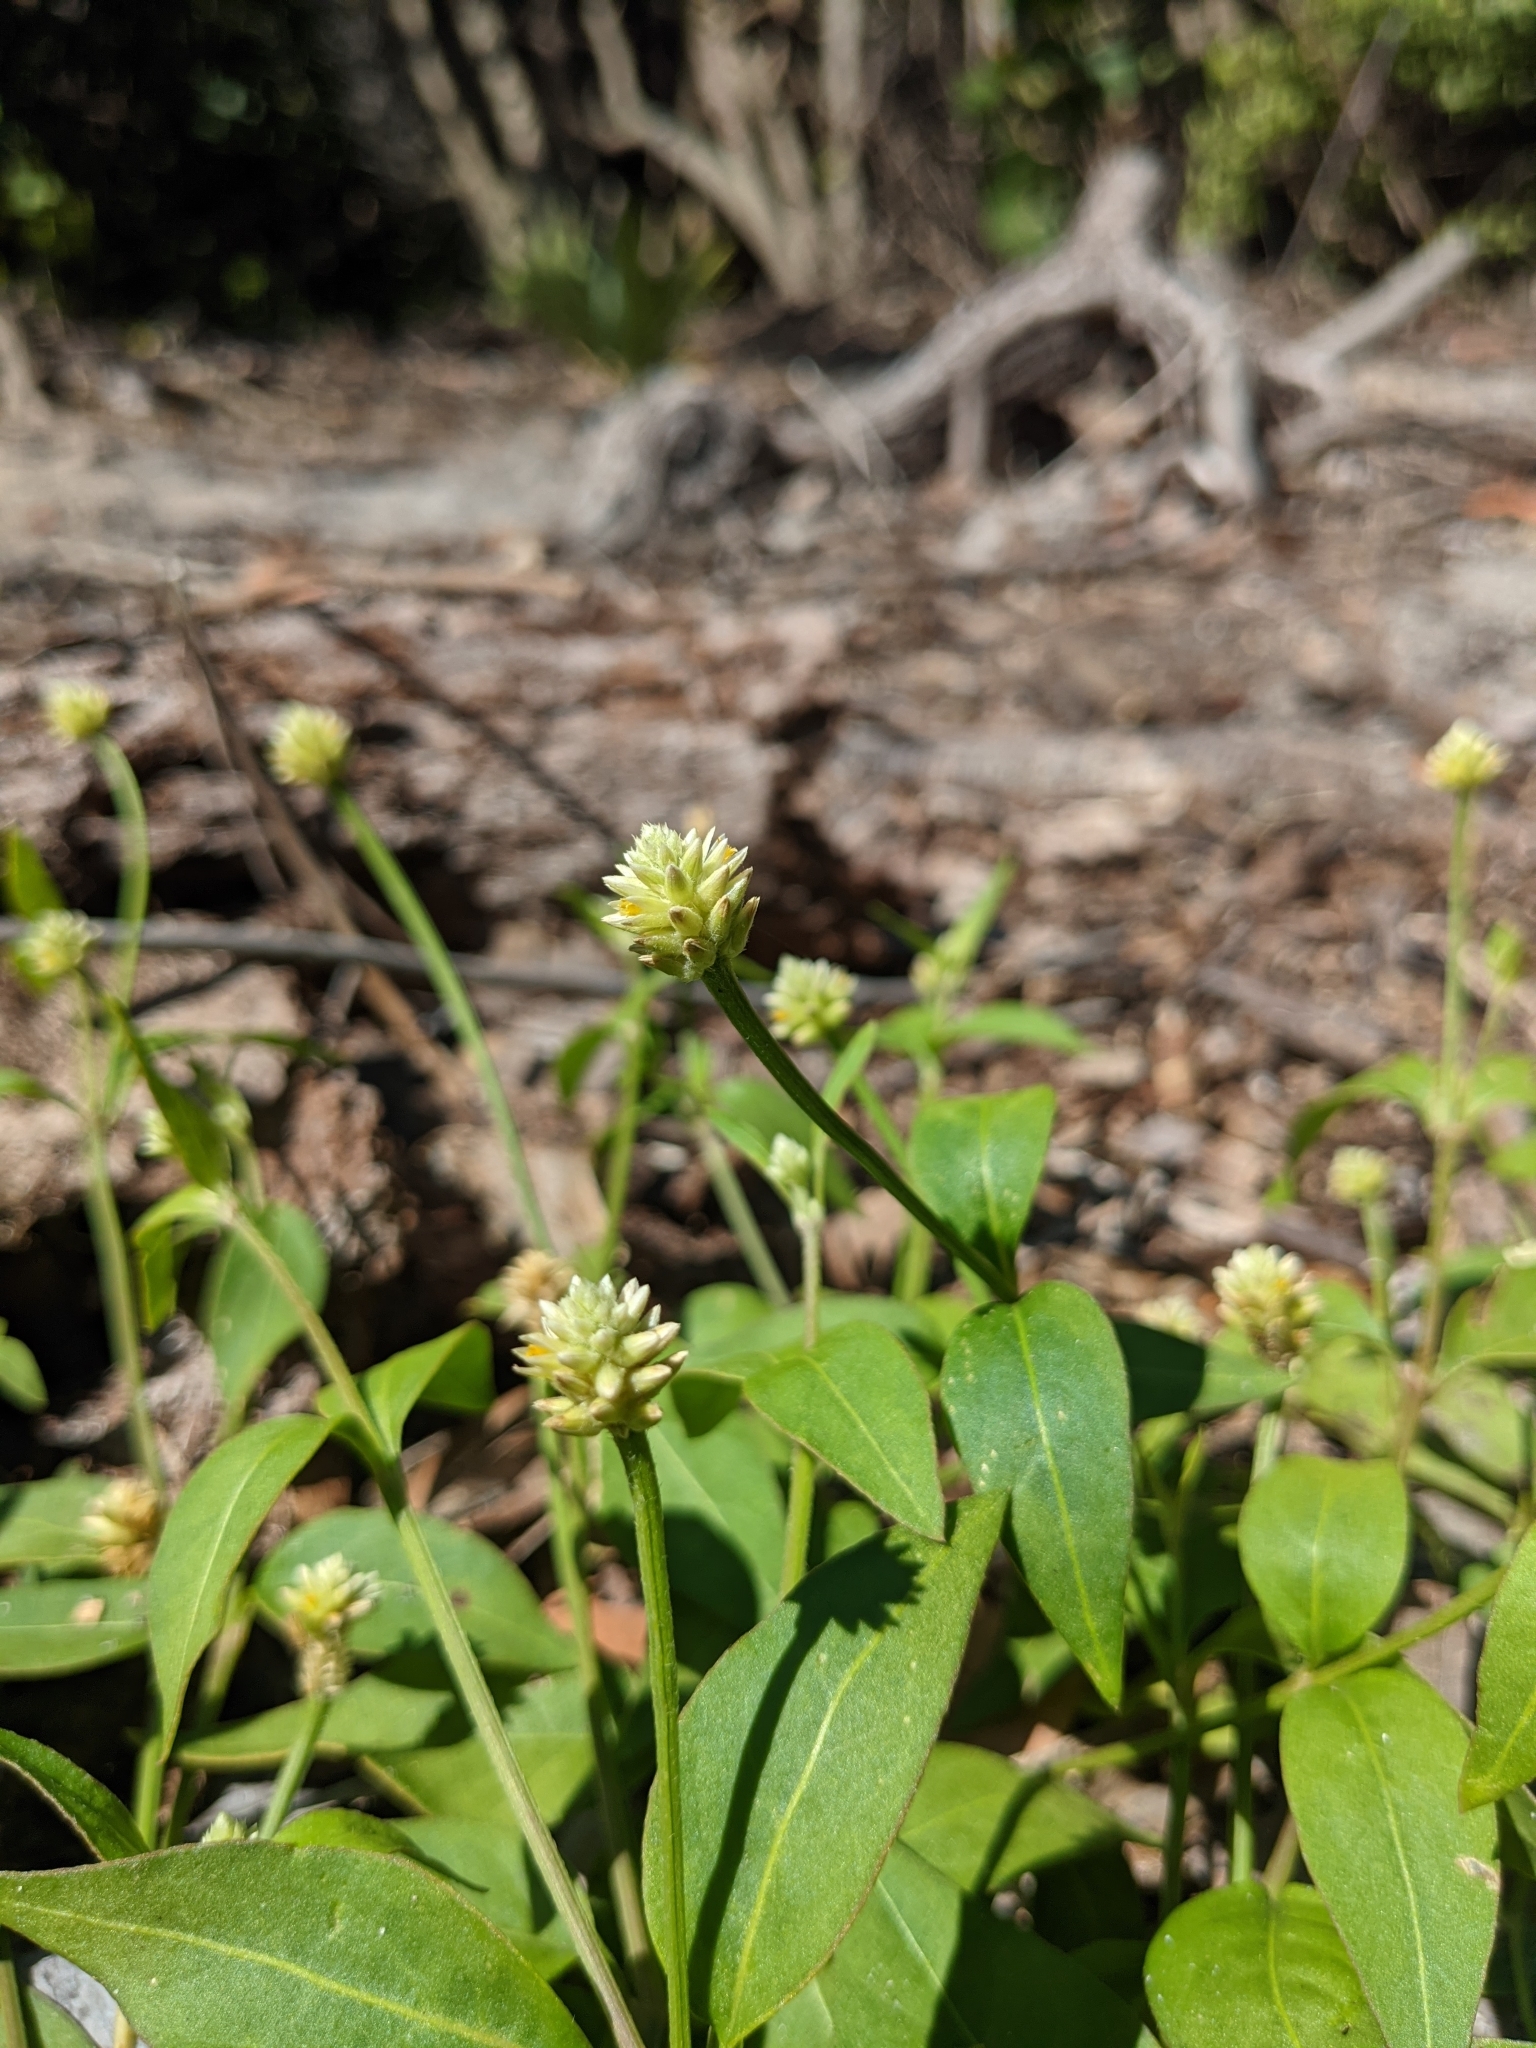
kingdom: Plantae
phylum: Tracheophyta
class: Magnoliopsida
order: Caryophyllales
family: Amaranthaceae
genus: Alternanthera
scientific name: Alternanthera flavescens
